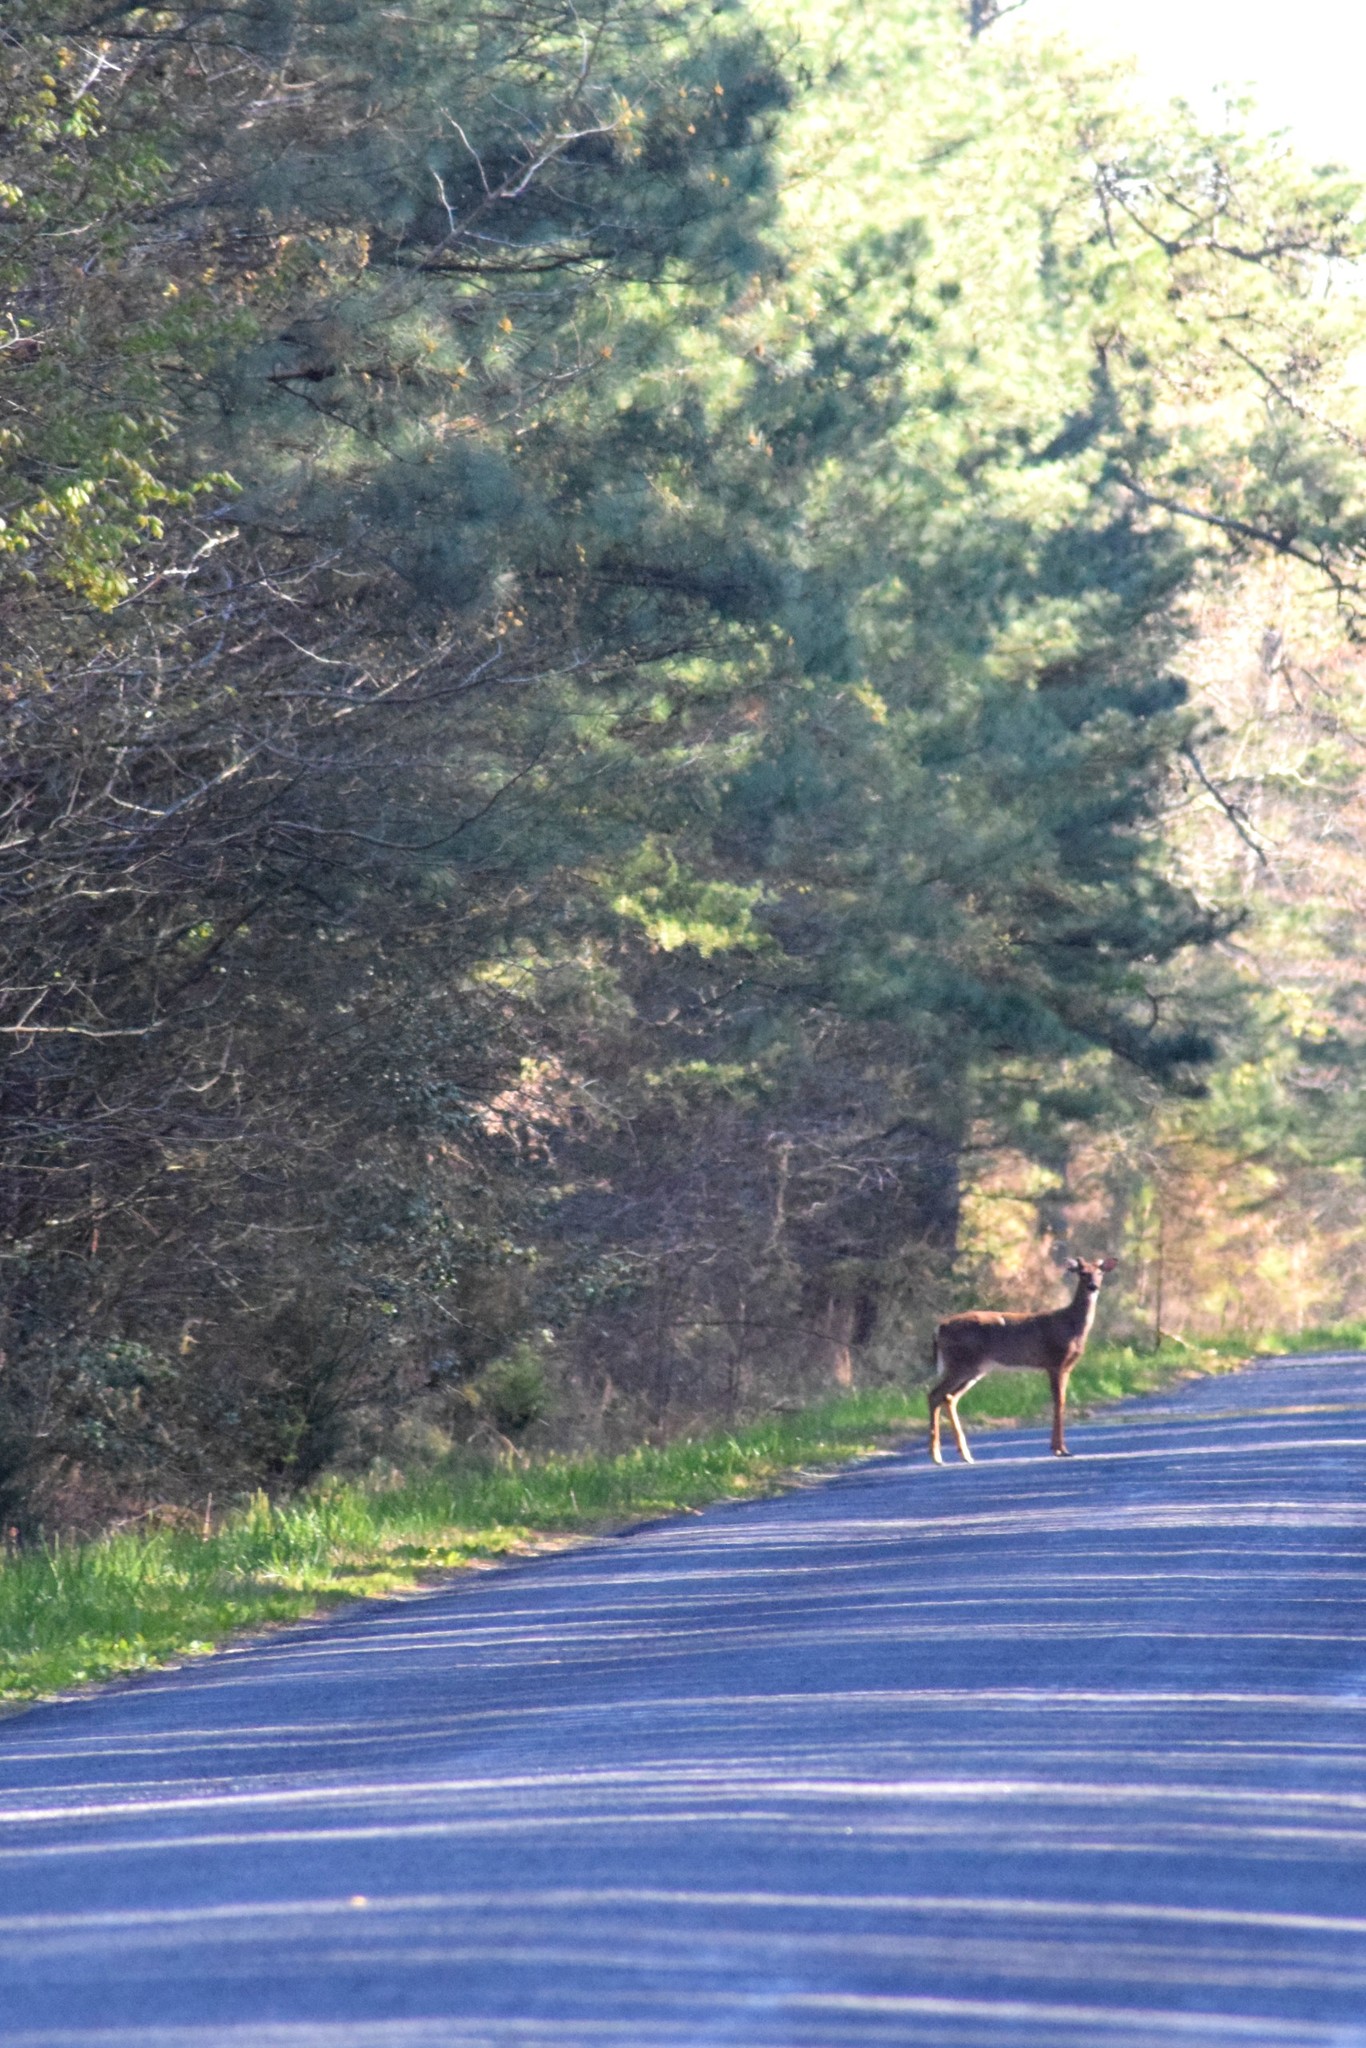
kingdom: Animalia
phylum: Chordata
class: Mammalia
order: Artiodactyla
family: Cervidae
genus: Odocoileus
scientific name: Odocoileus virginianus
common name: White-tailed deer
